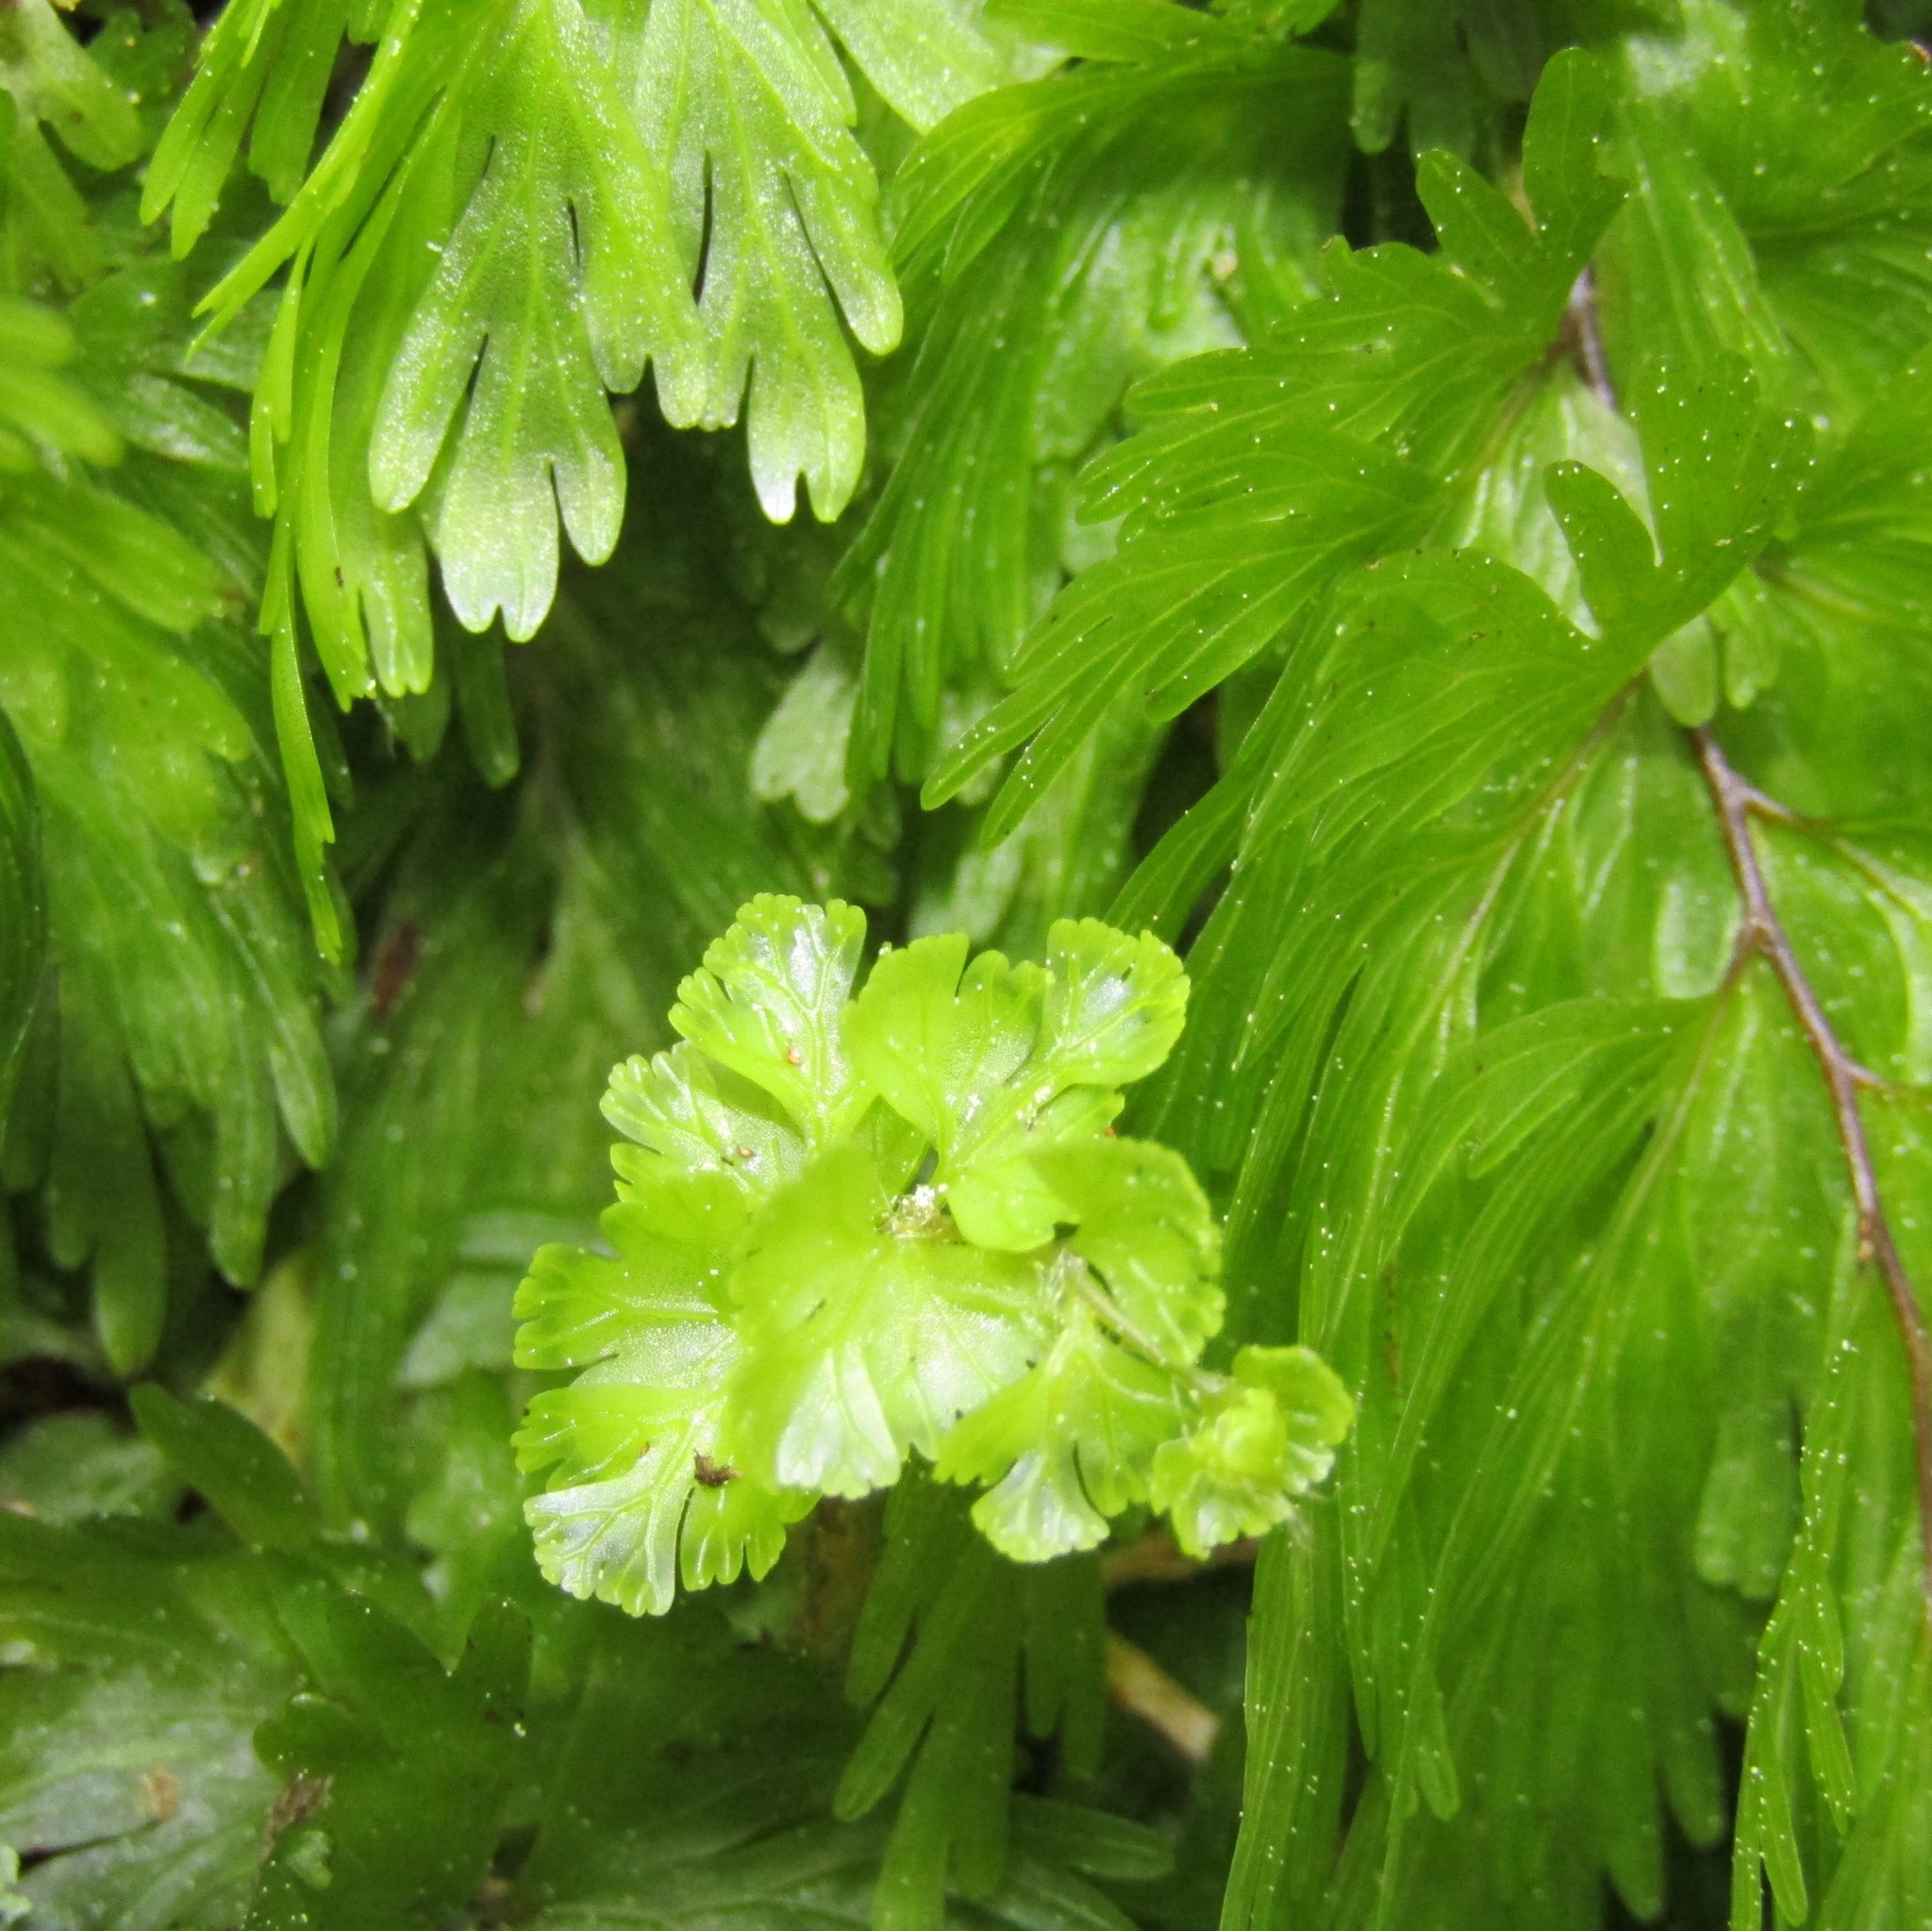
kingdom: Plantae
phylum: Tracheophyta
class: Polypodiopsida
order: Hymenophyllales
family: Hymenophyllaceae
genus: Hymenophyllum
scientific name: Hymenophyllum flabellatum
